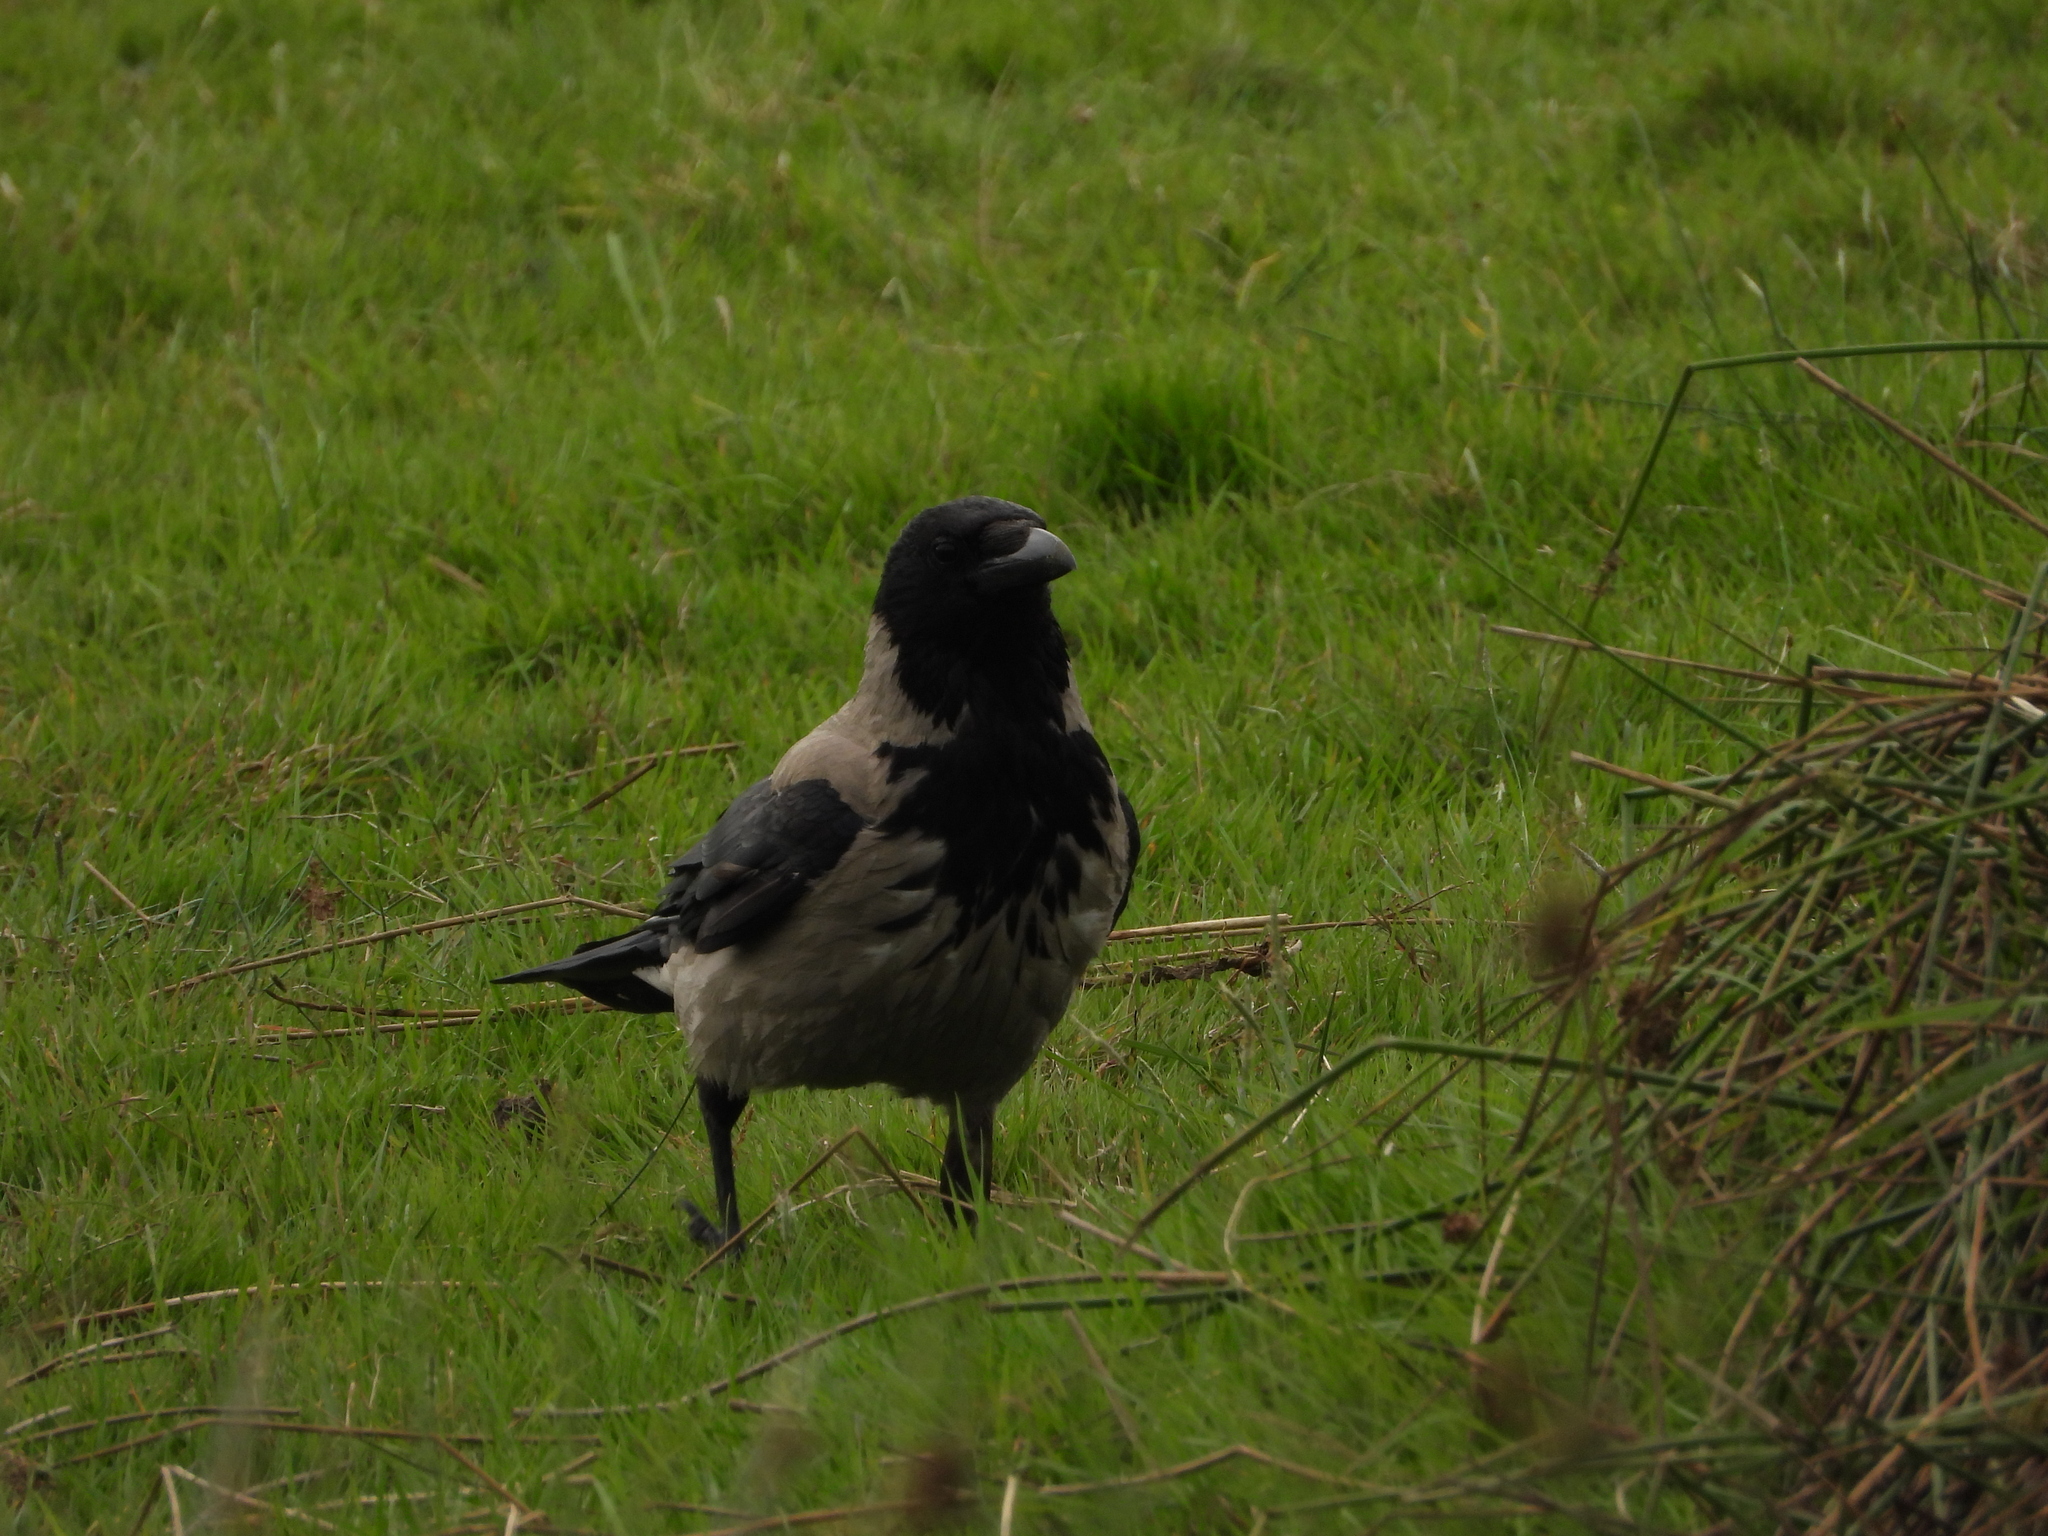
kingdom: Animalia
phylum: Chordata
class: Aves
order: Passeriformes
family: Corvidae
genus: Corvus
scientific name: Corvus cornix
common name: Hooded crow
